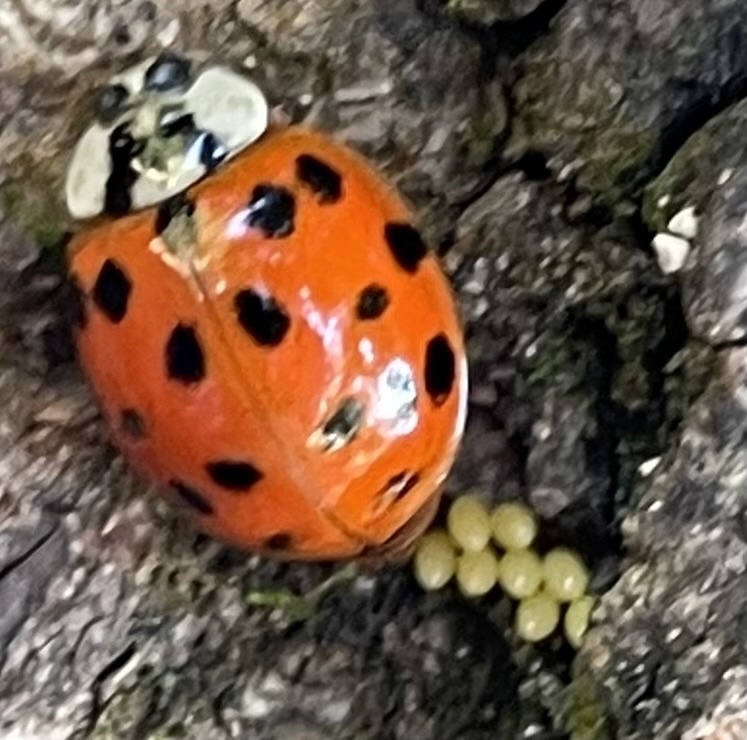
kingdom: Animalia
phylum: Arthropoda
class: Insecta
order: Coleoptera
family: Coccinellidae
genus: Harmonia
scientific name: Harmonia axyridis
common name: Harlequin ladybird
